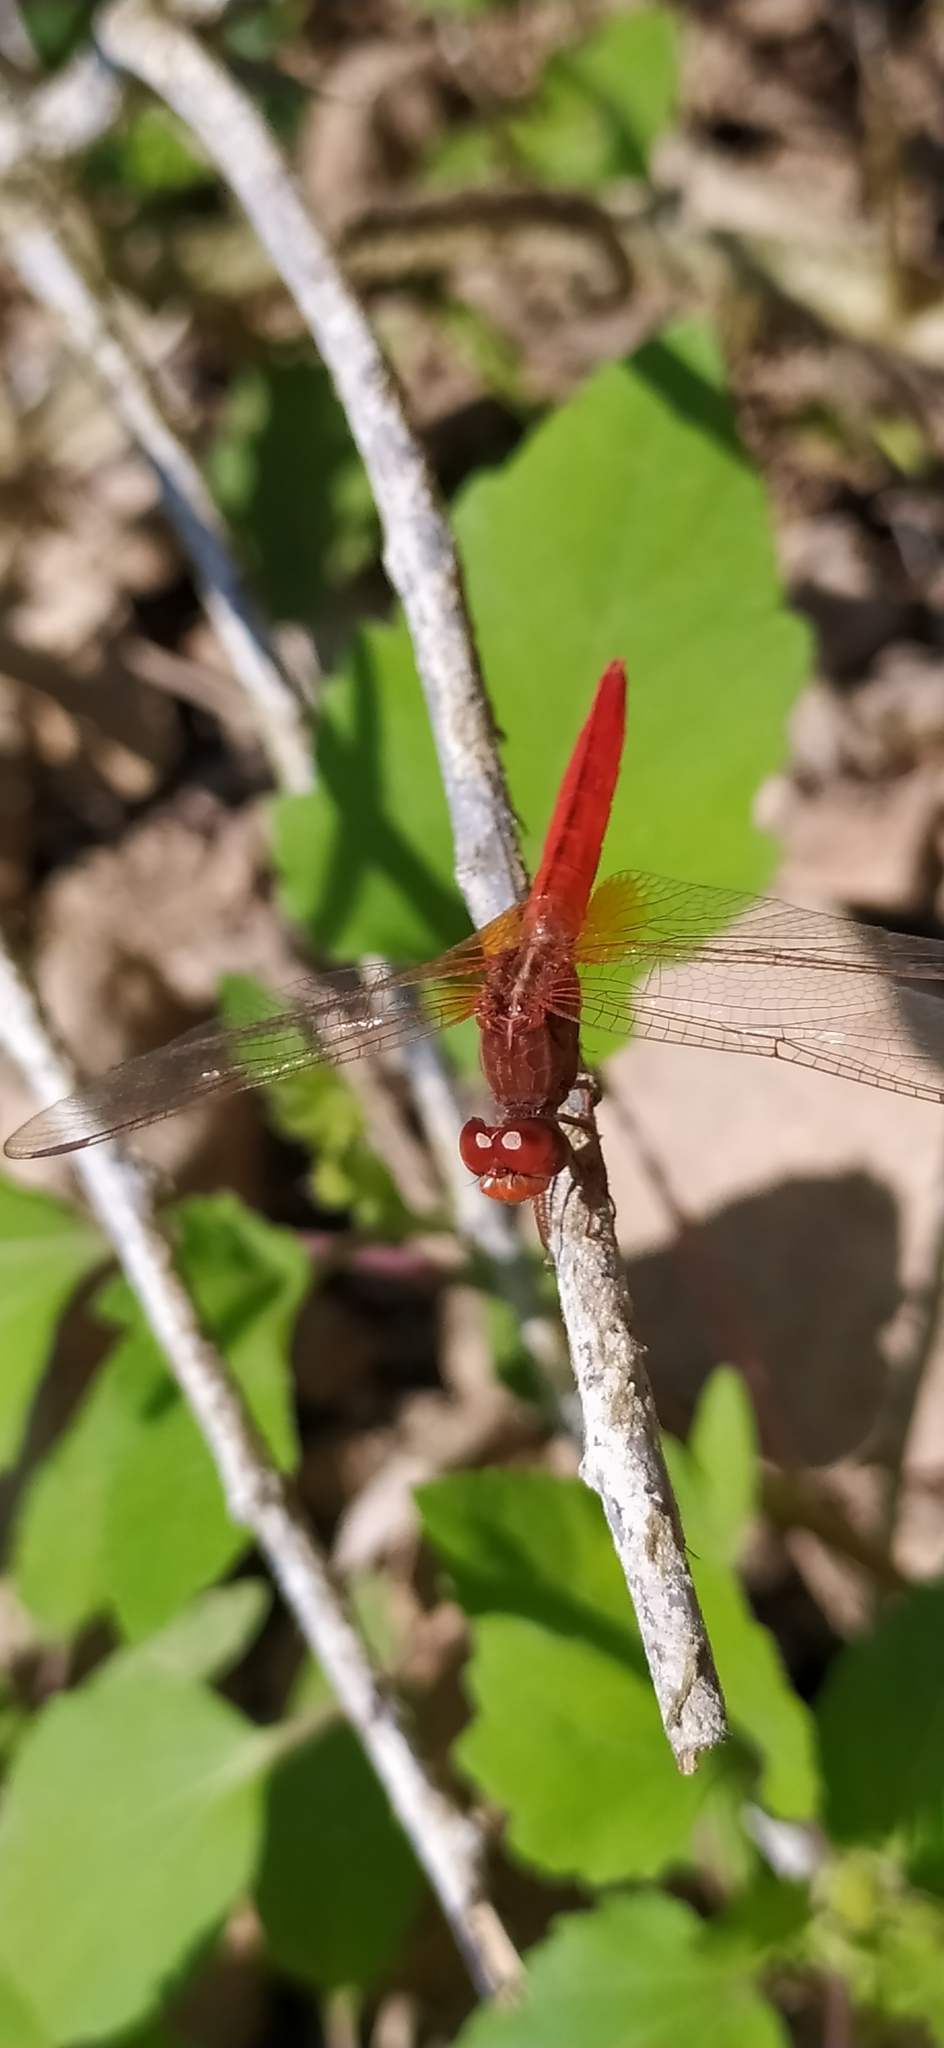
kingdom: Animalia
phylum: Arthropoda
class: Insecta
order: Odonata
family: Libellulidae
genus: Crocothemis
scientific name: Crocothemis servilia
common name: Scarlet skimmer
